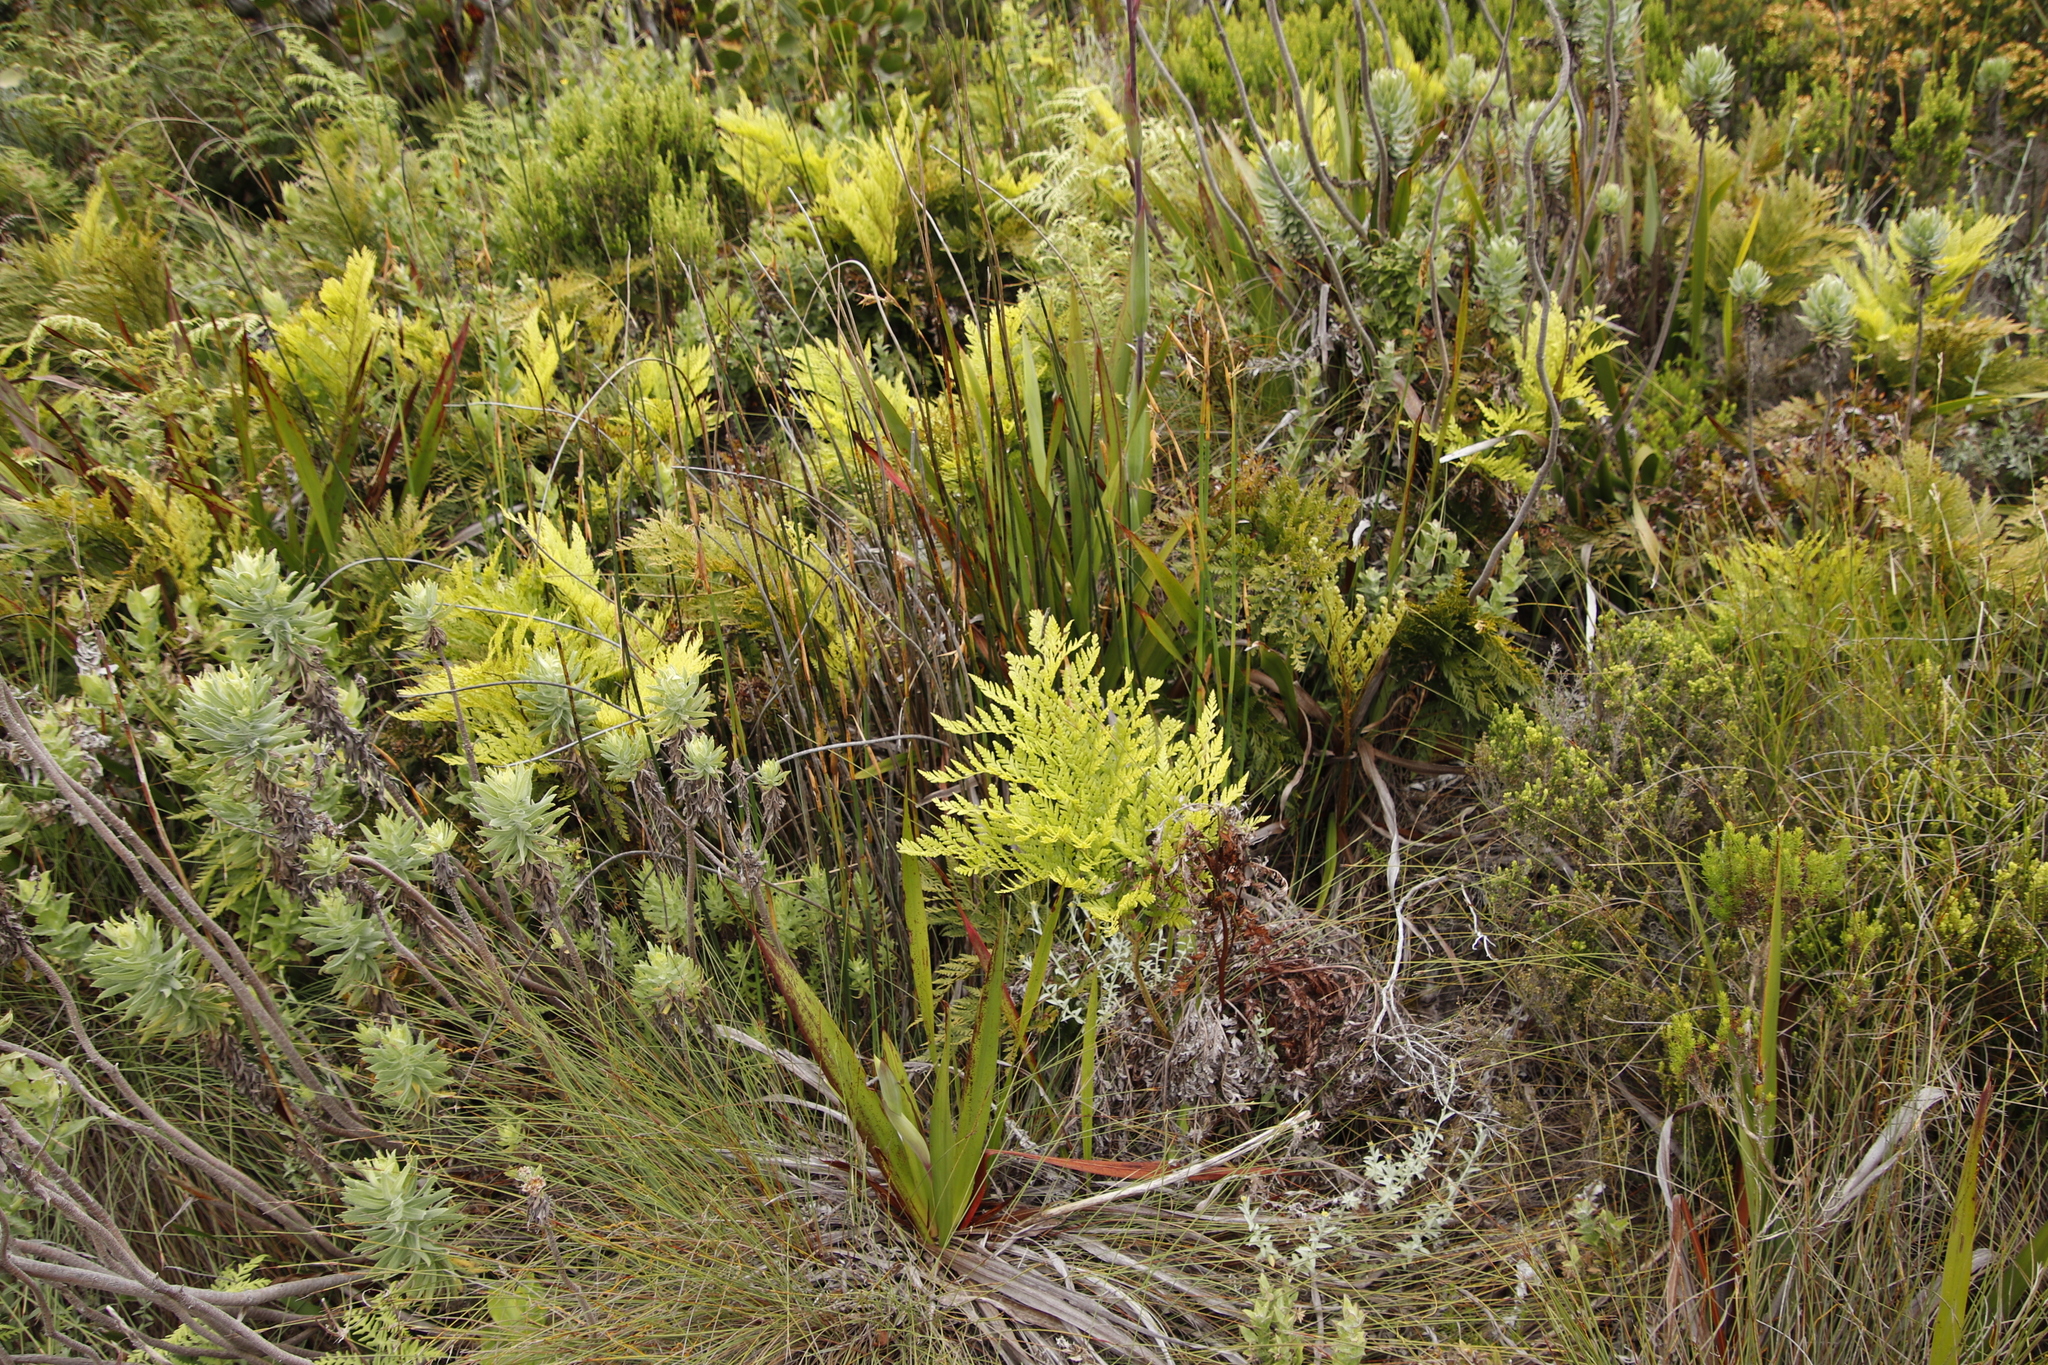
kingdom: Plantae
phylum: Tracheophyta
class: Polypodiopsida
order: Polypodiales
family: Dryopteridaceae
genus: Rumohra
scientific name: Rumohra adiantiformis
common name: Leather fern
